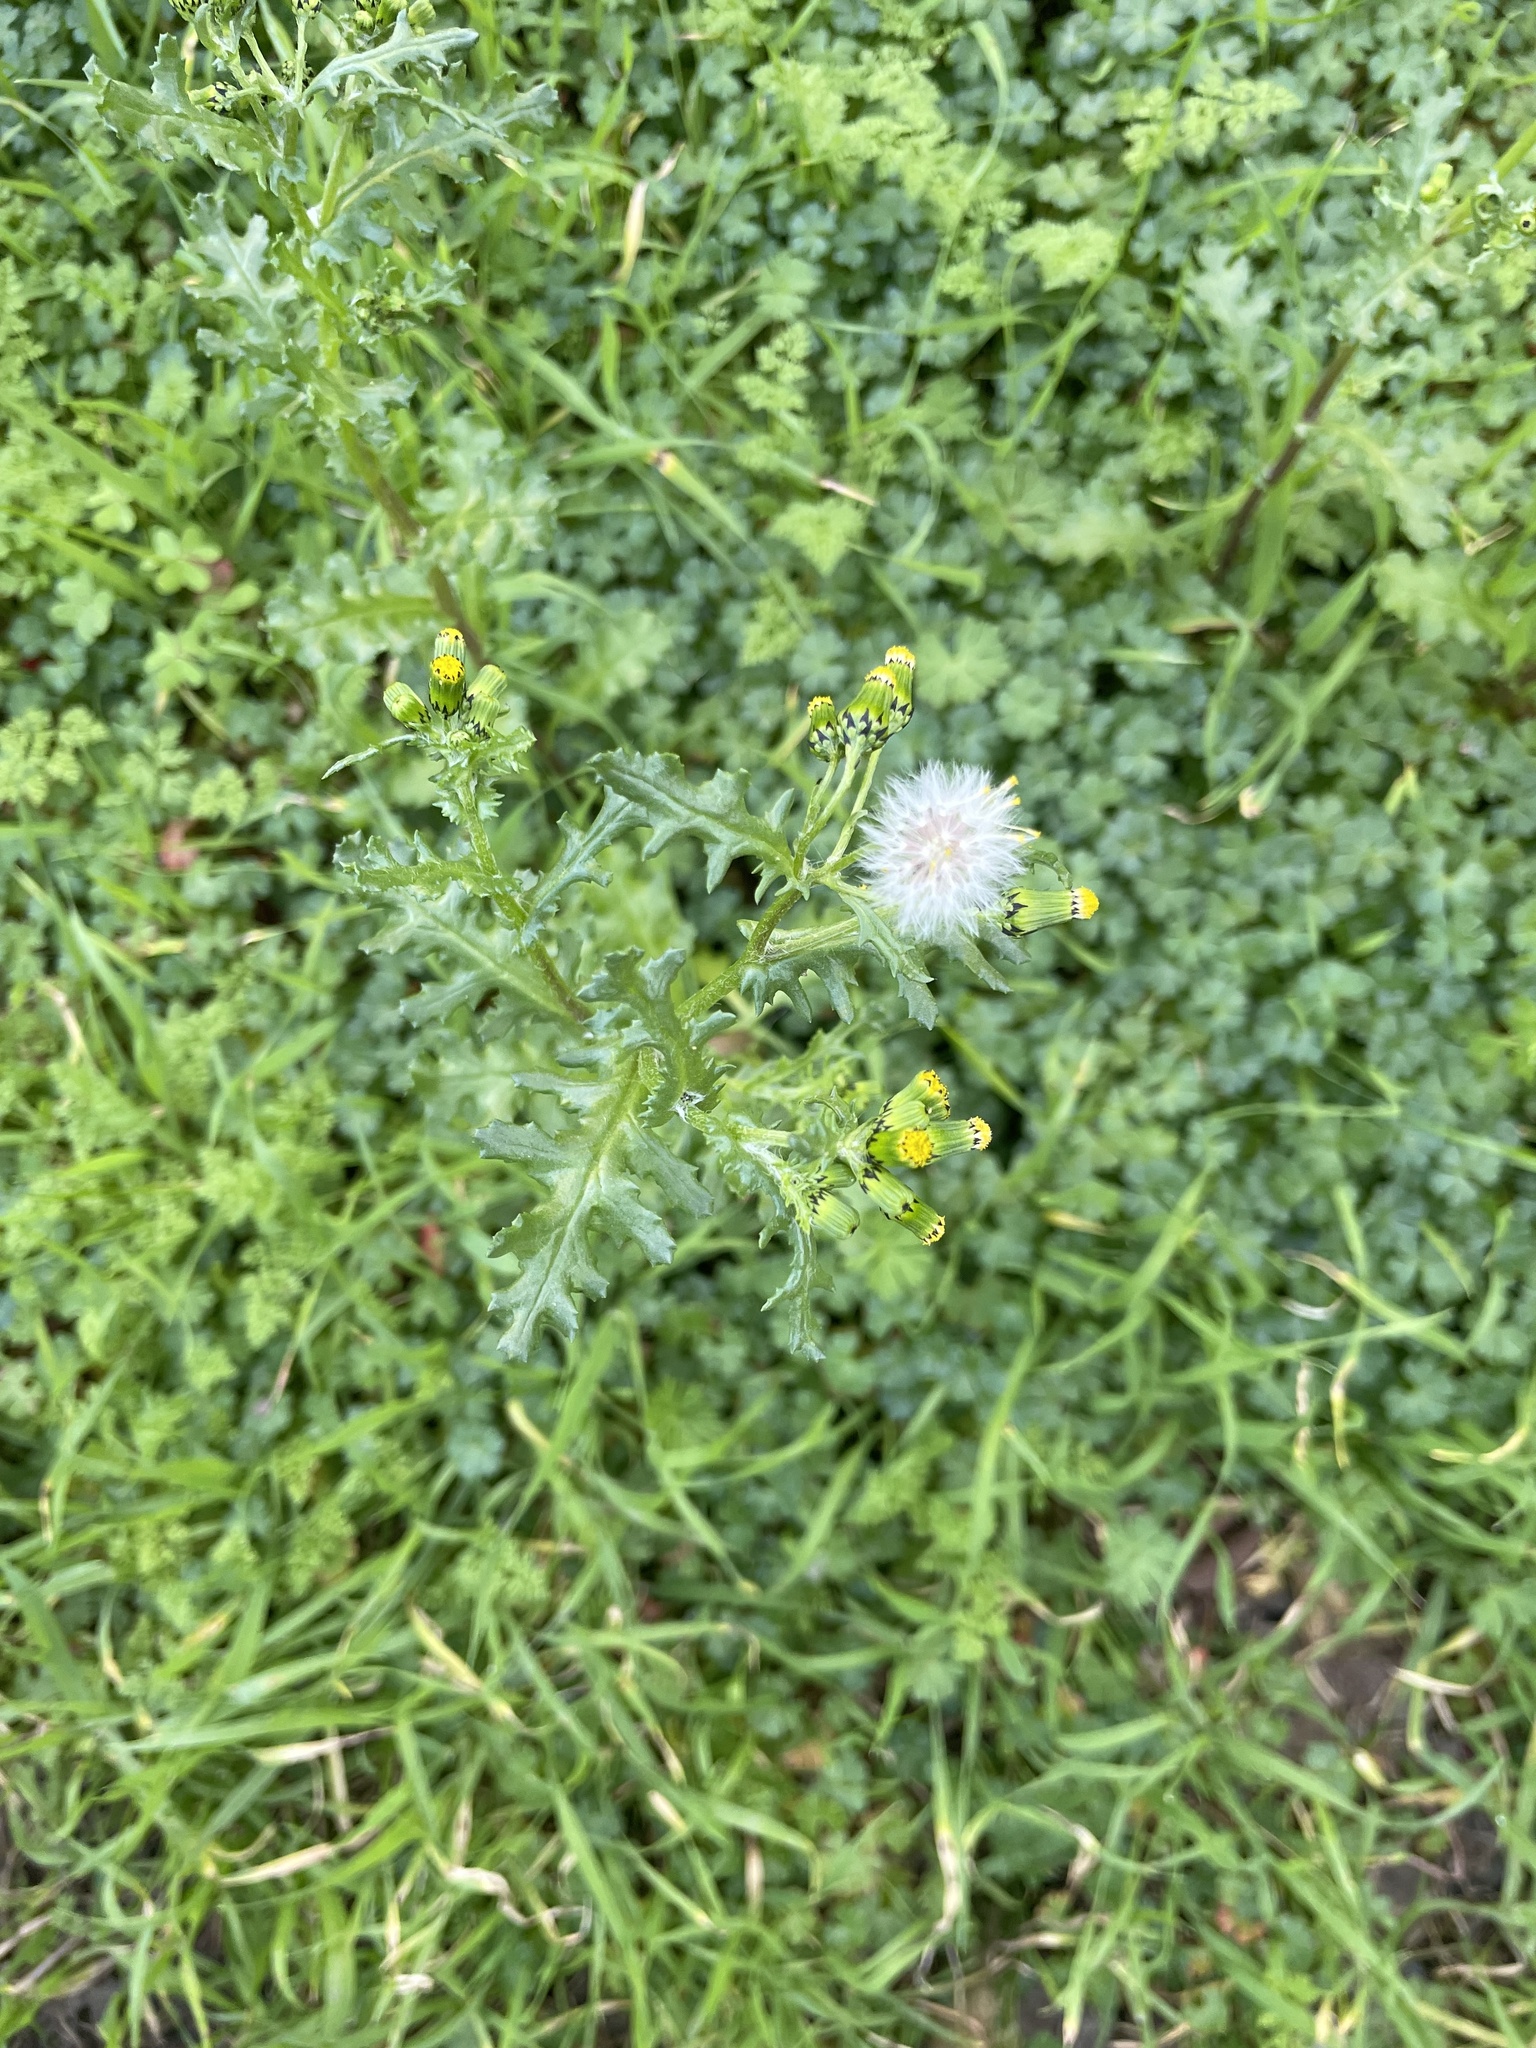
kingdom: Plantae
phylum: Tracheophyta
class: Magnoliopsida
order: Asterales
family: Asteraceae
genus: Senecio
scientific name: Senecio vulgaris
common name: Old-man-in-the-spring
